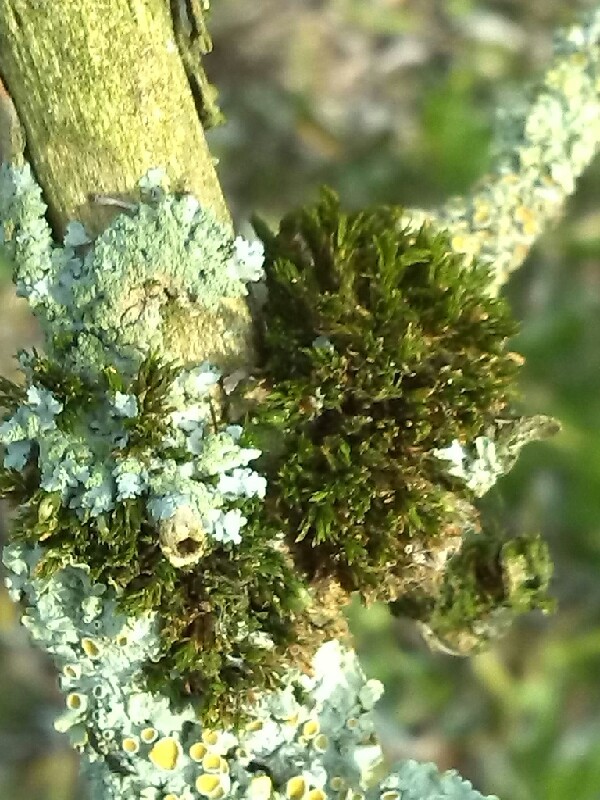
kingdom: Plantae
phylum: Bryophyta
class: Bryopsida
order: Orthotrichales
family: Orthotrichaceae
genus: Lewinskya
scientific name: Lewinskya affinis
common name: Wood bristle-moss
